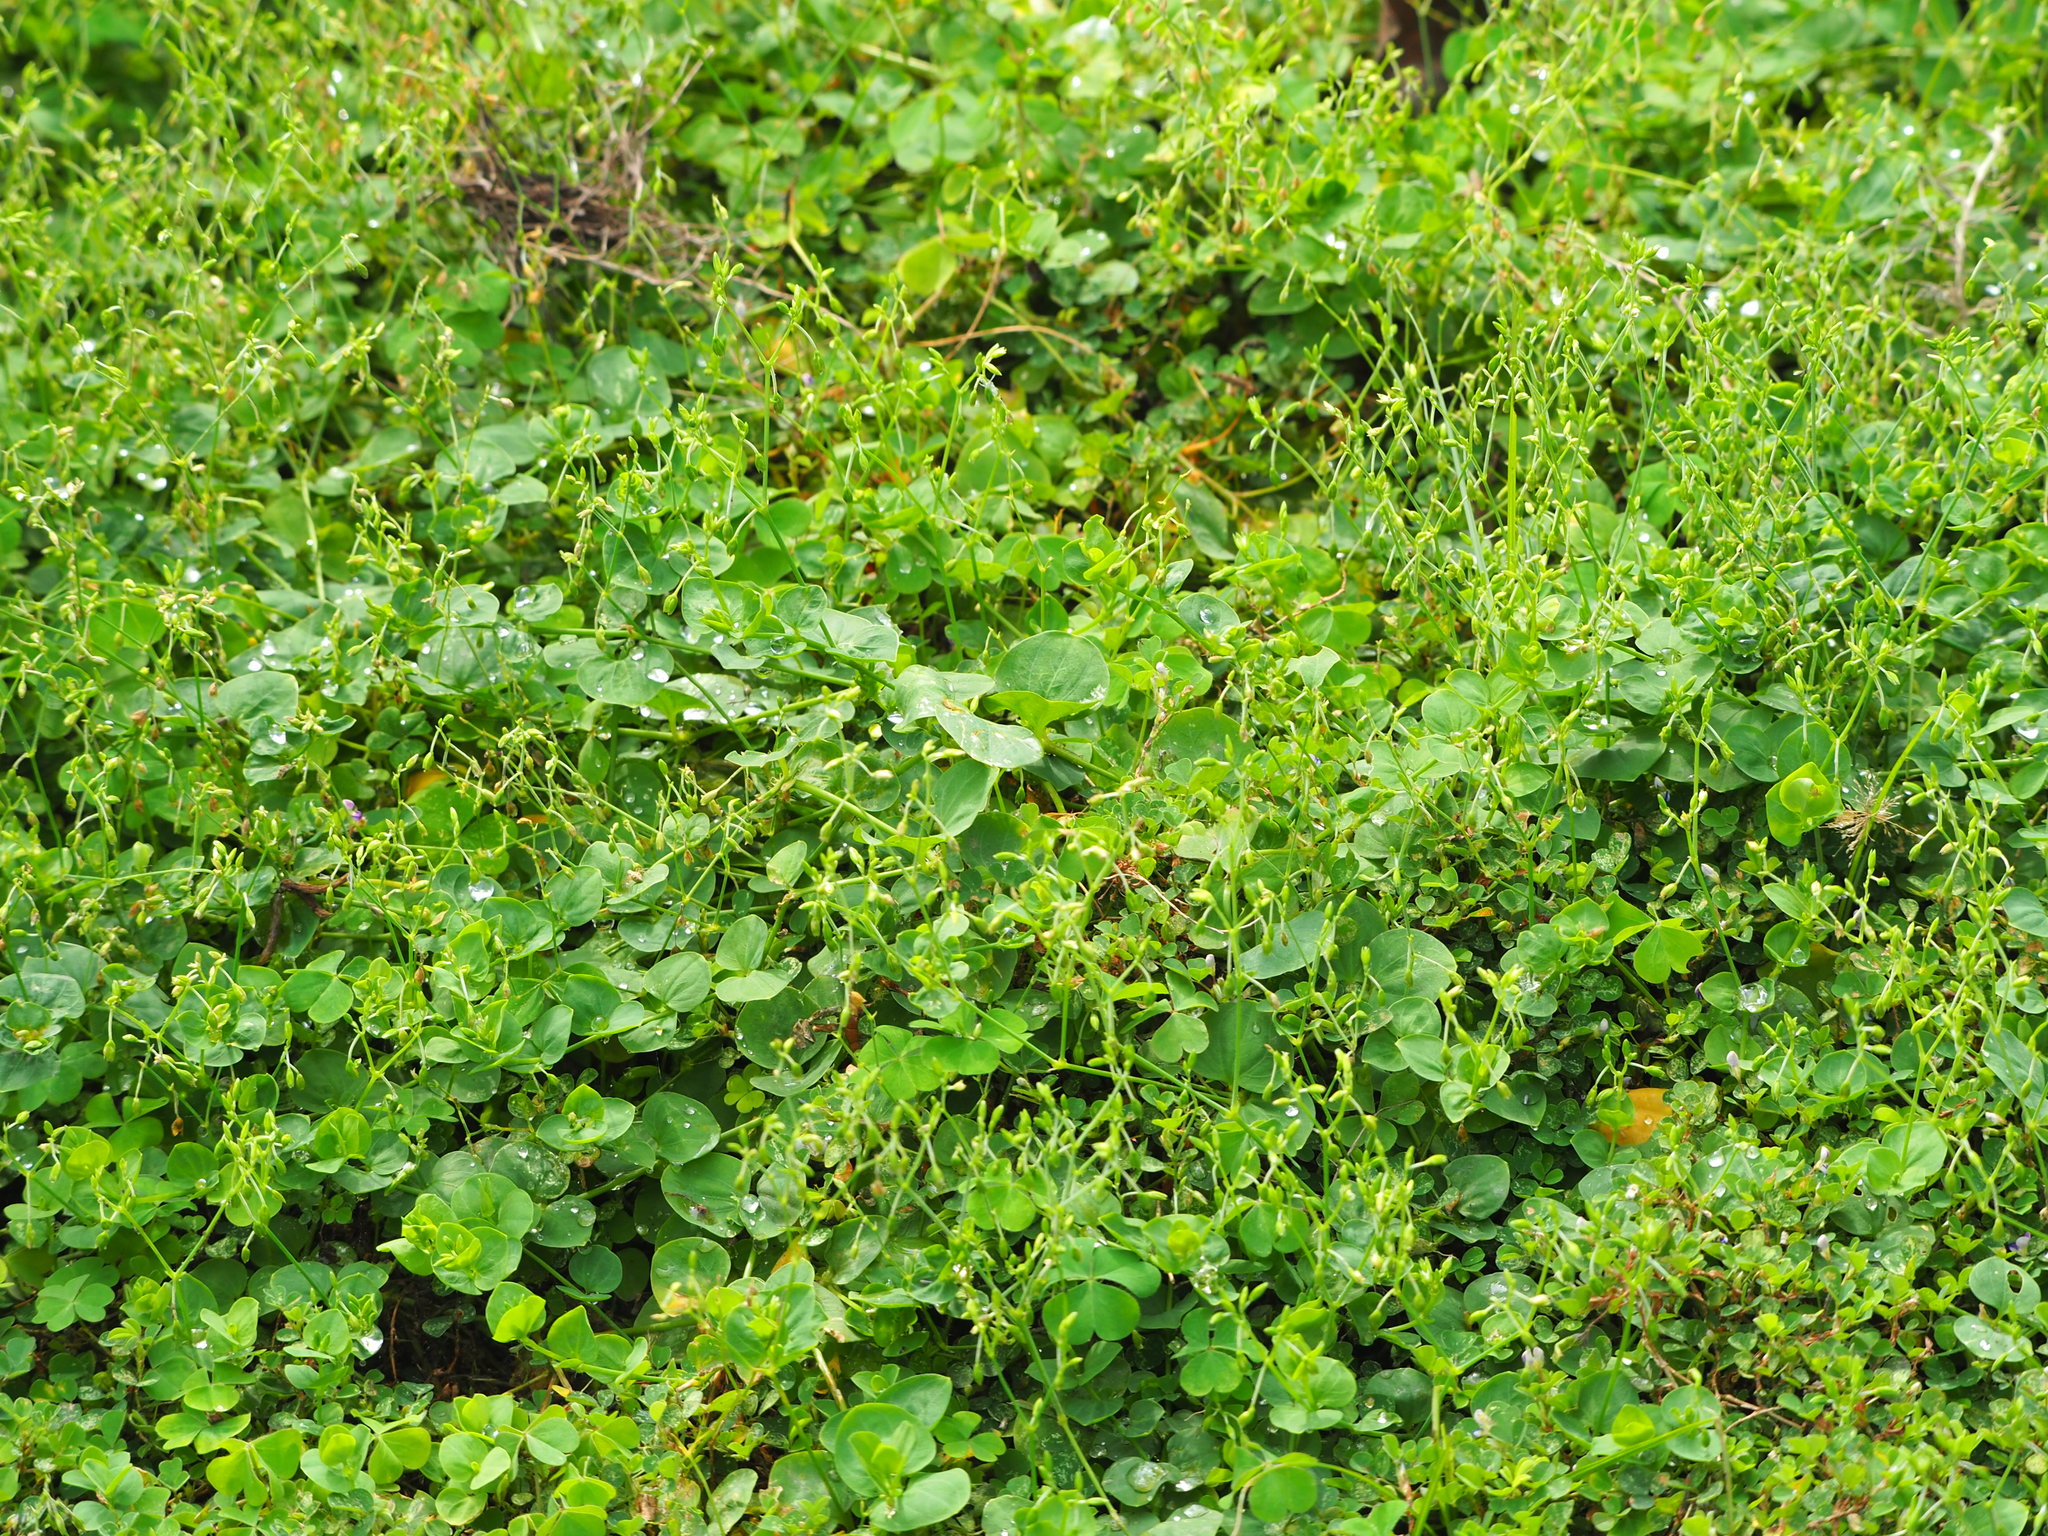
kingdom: Plantae
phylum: Tracheophyta
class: Magnoliopsida
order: Caryophyllales
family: Caryophyllaceae
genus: Drymaria
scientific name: Drymaria cordata
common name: Whitesnow
